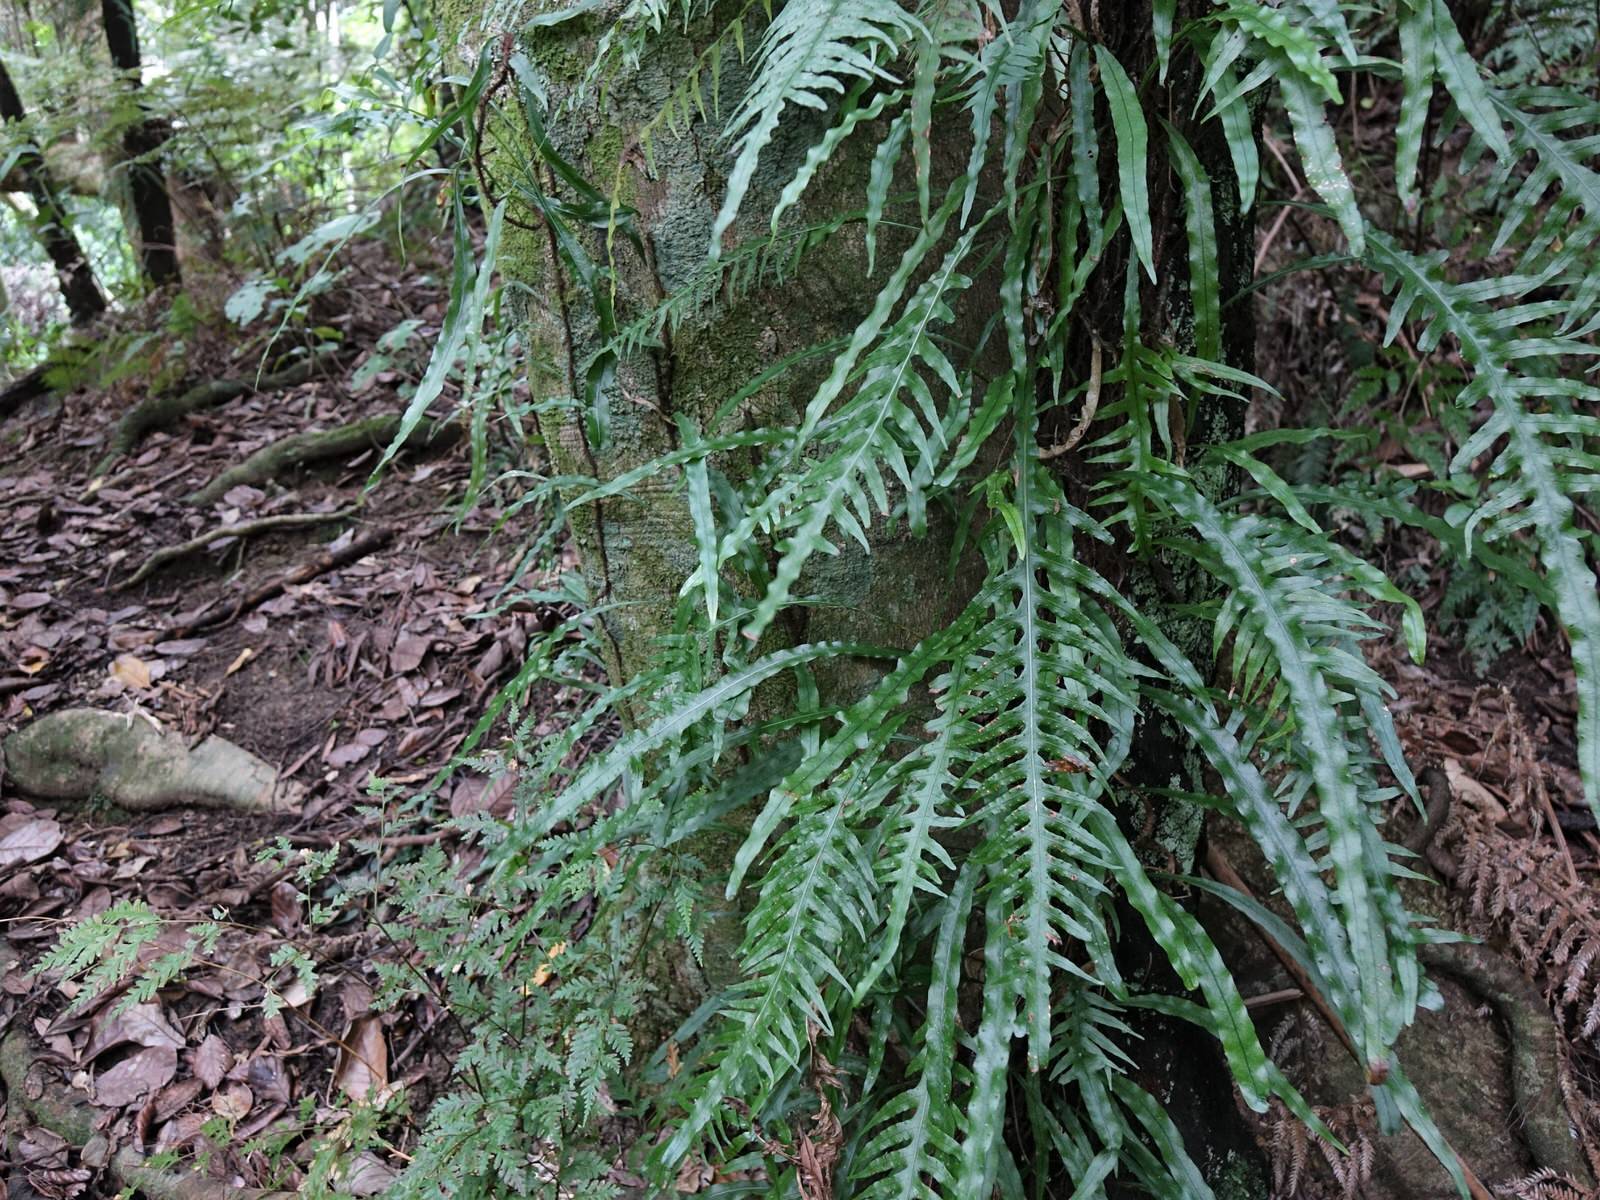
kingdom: Plantae
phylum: Tracheophyta
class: Polypodiopsida
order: Polypodiales
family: Polypodiaceae
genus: Lecanopteris
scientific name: Lecanopteris scandens
